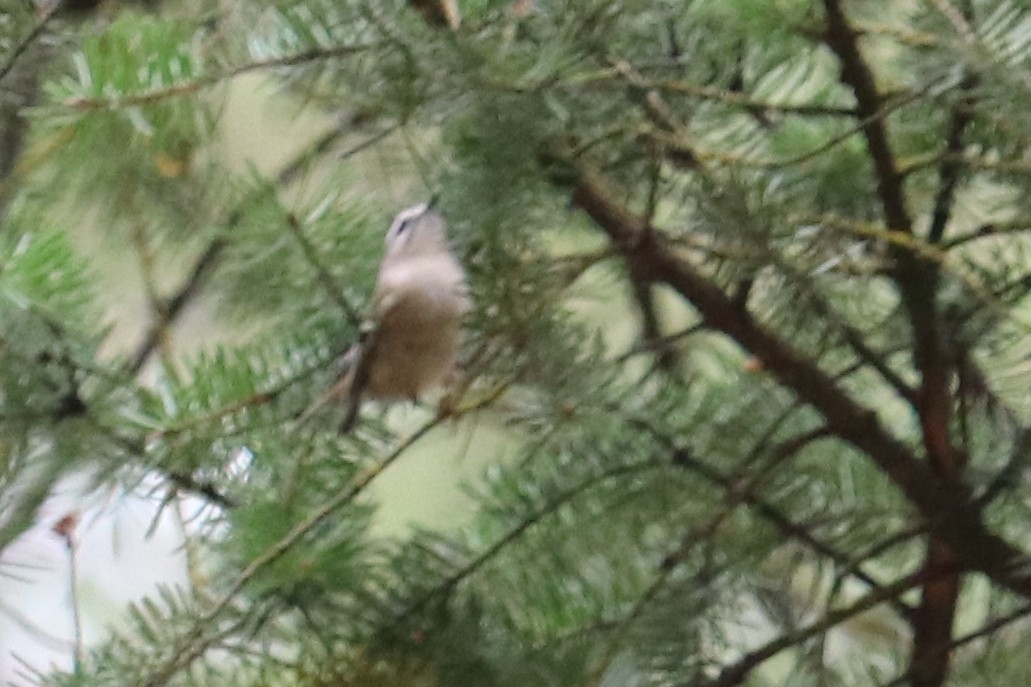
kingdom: Animalia
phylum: Chordata
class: Aves
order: Passeriformes
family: Regulidae
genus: Regulus
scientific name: Regulus satrapa
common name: Golden-crowned kinglet
